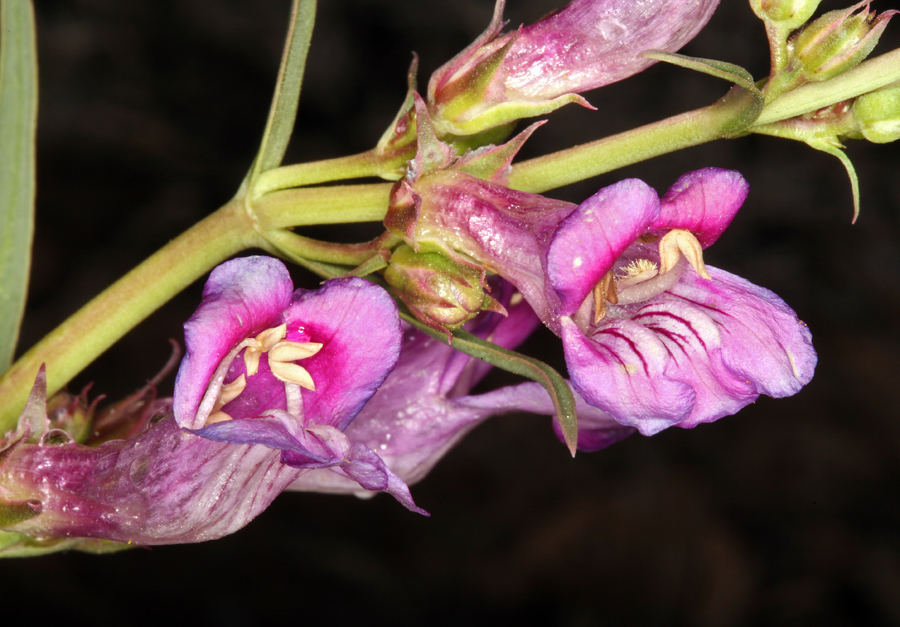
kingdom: Plantae
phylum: Tracheophyta
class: Magnoliopsida
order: Lamiales
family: Plantaginaceae
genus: Penstemon
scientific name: Penstemon speciosus
